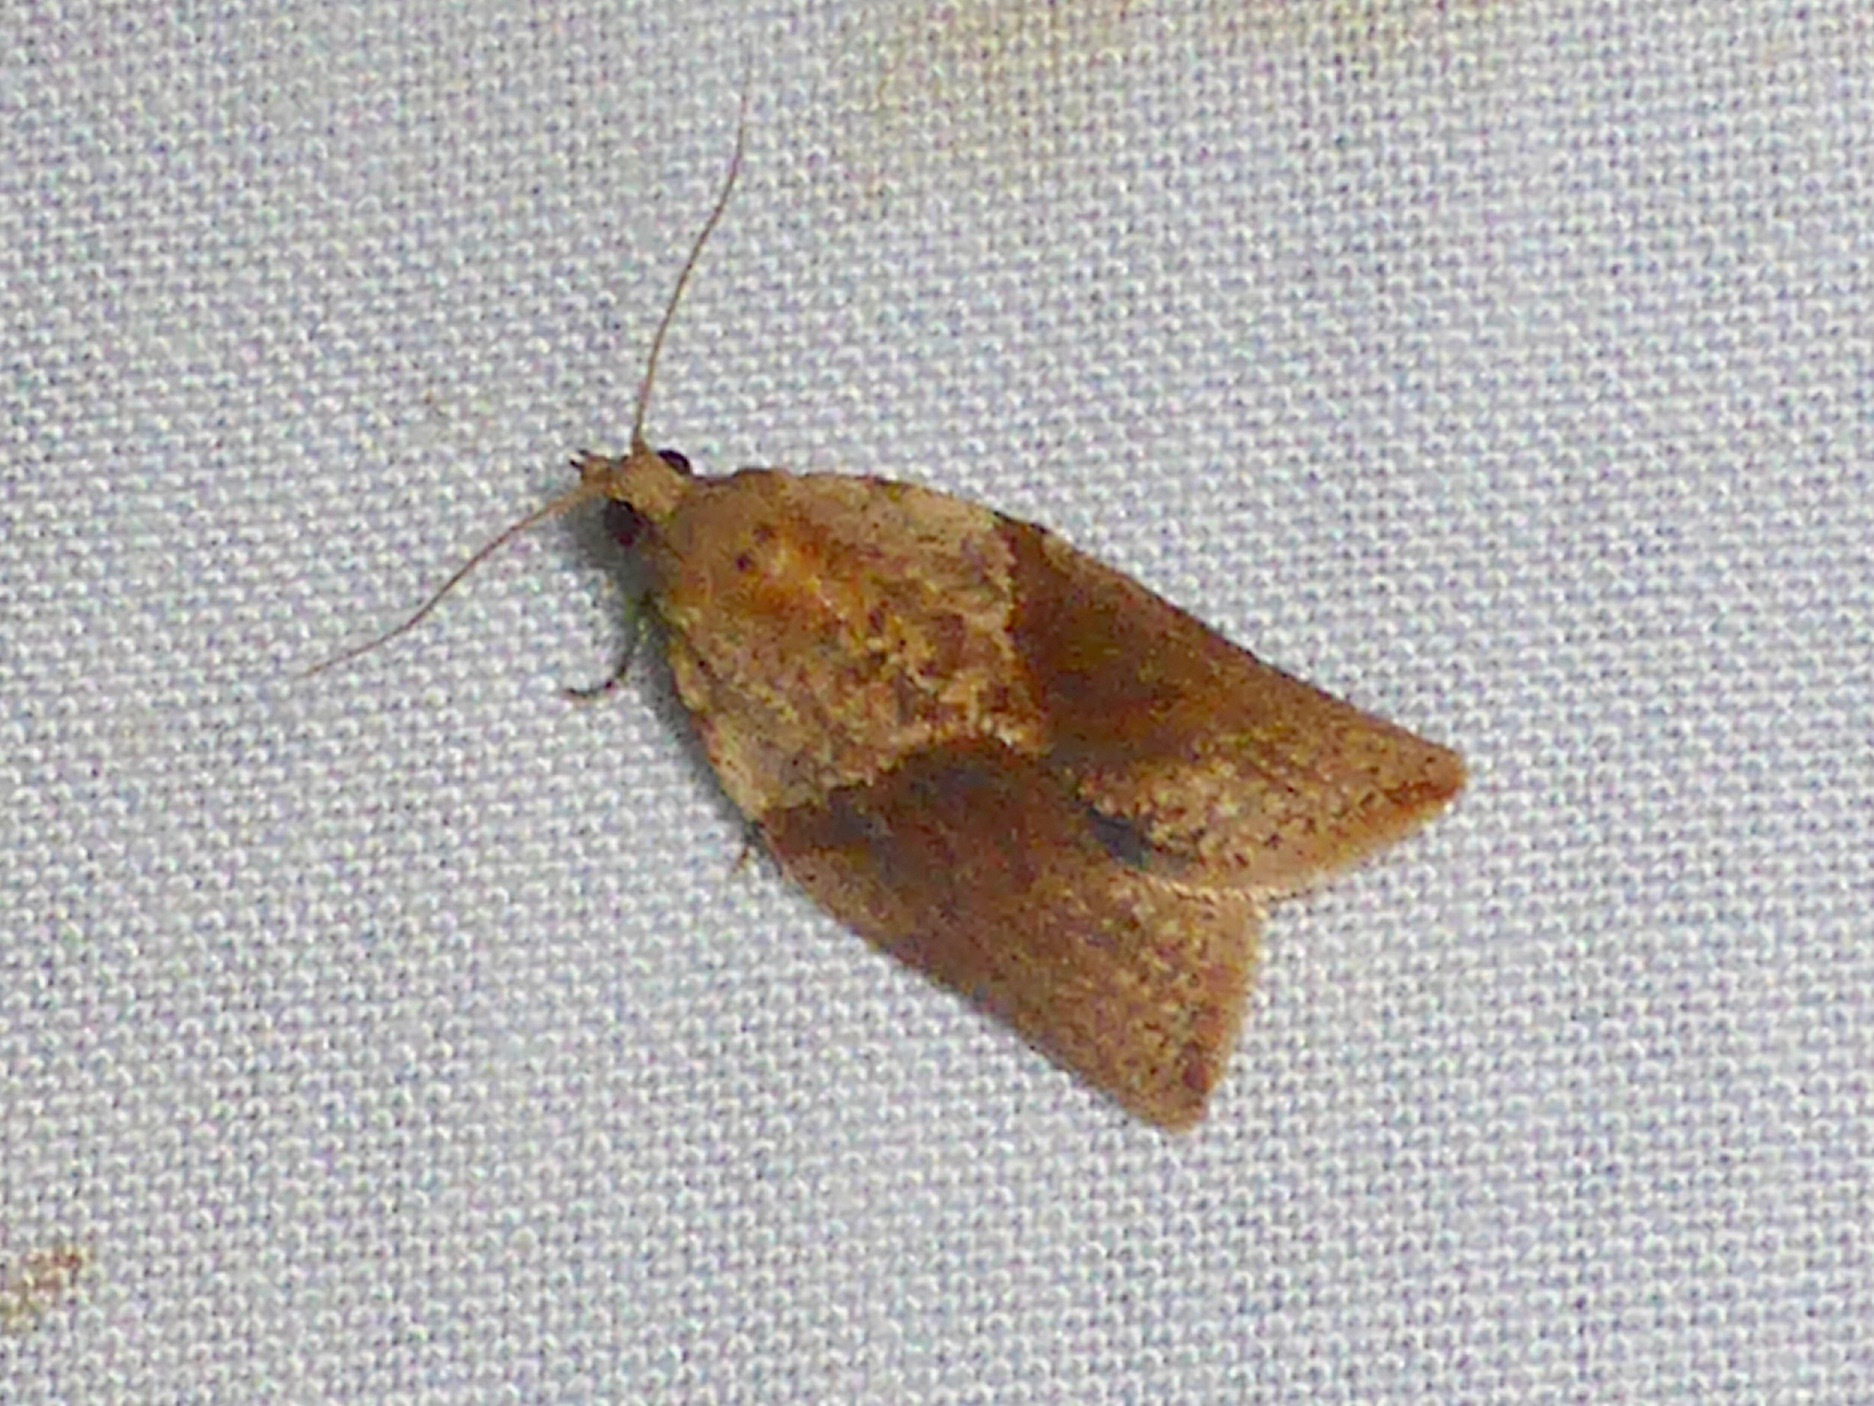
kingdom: Animalia
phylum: Arthropoda
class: Insecta
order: Lepidoptera
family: Tortricidae
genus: Epiphyas
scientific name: Epiphyas postvittana
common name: Light brown apple moth
